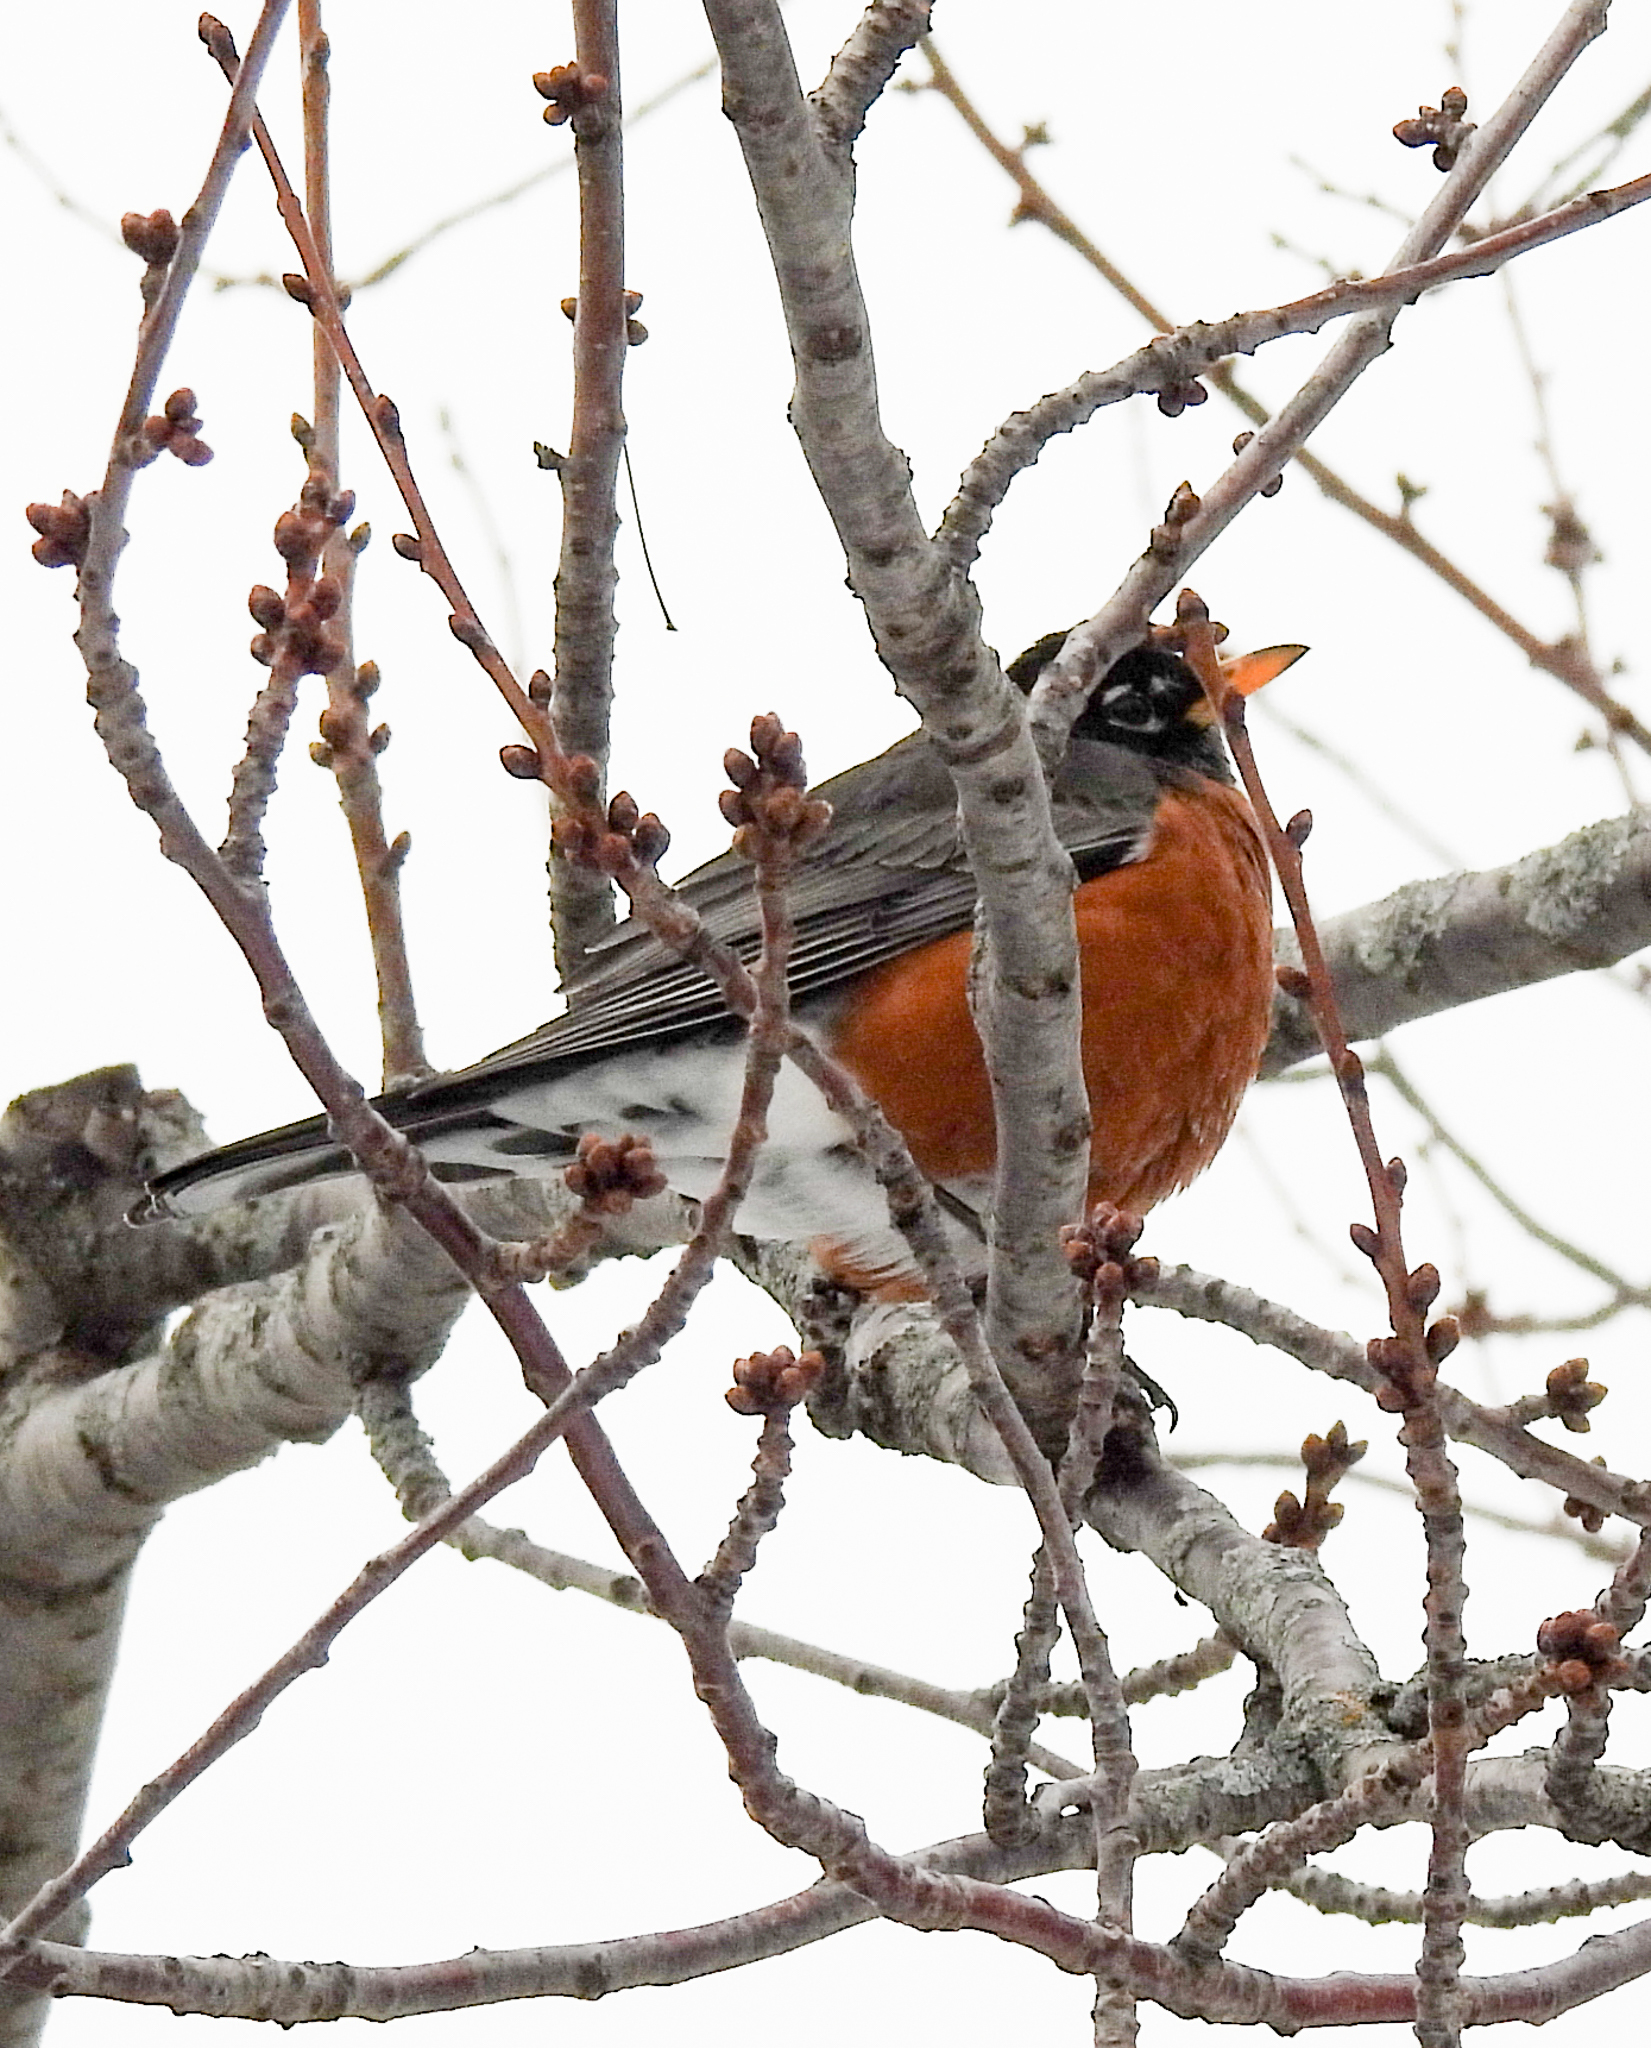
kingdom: Animalia
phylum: Chordata
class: Aves
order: Passeriformes
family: Turdidae
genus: Turdus
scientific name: Turdus migratorius
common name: American robin
